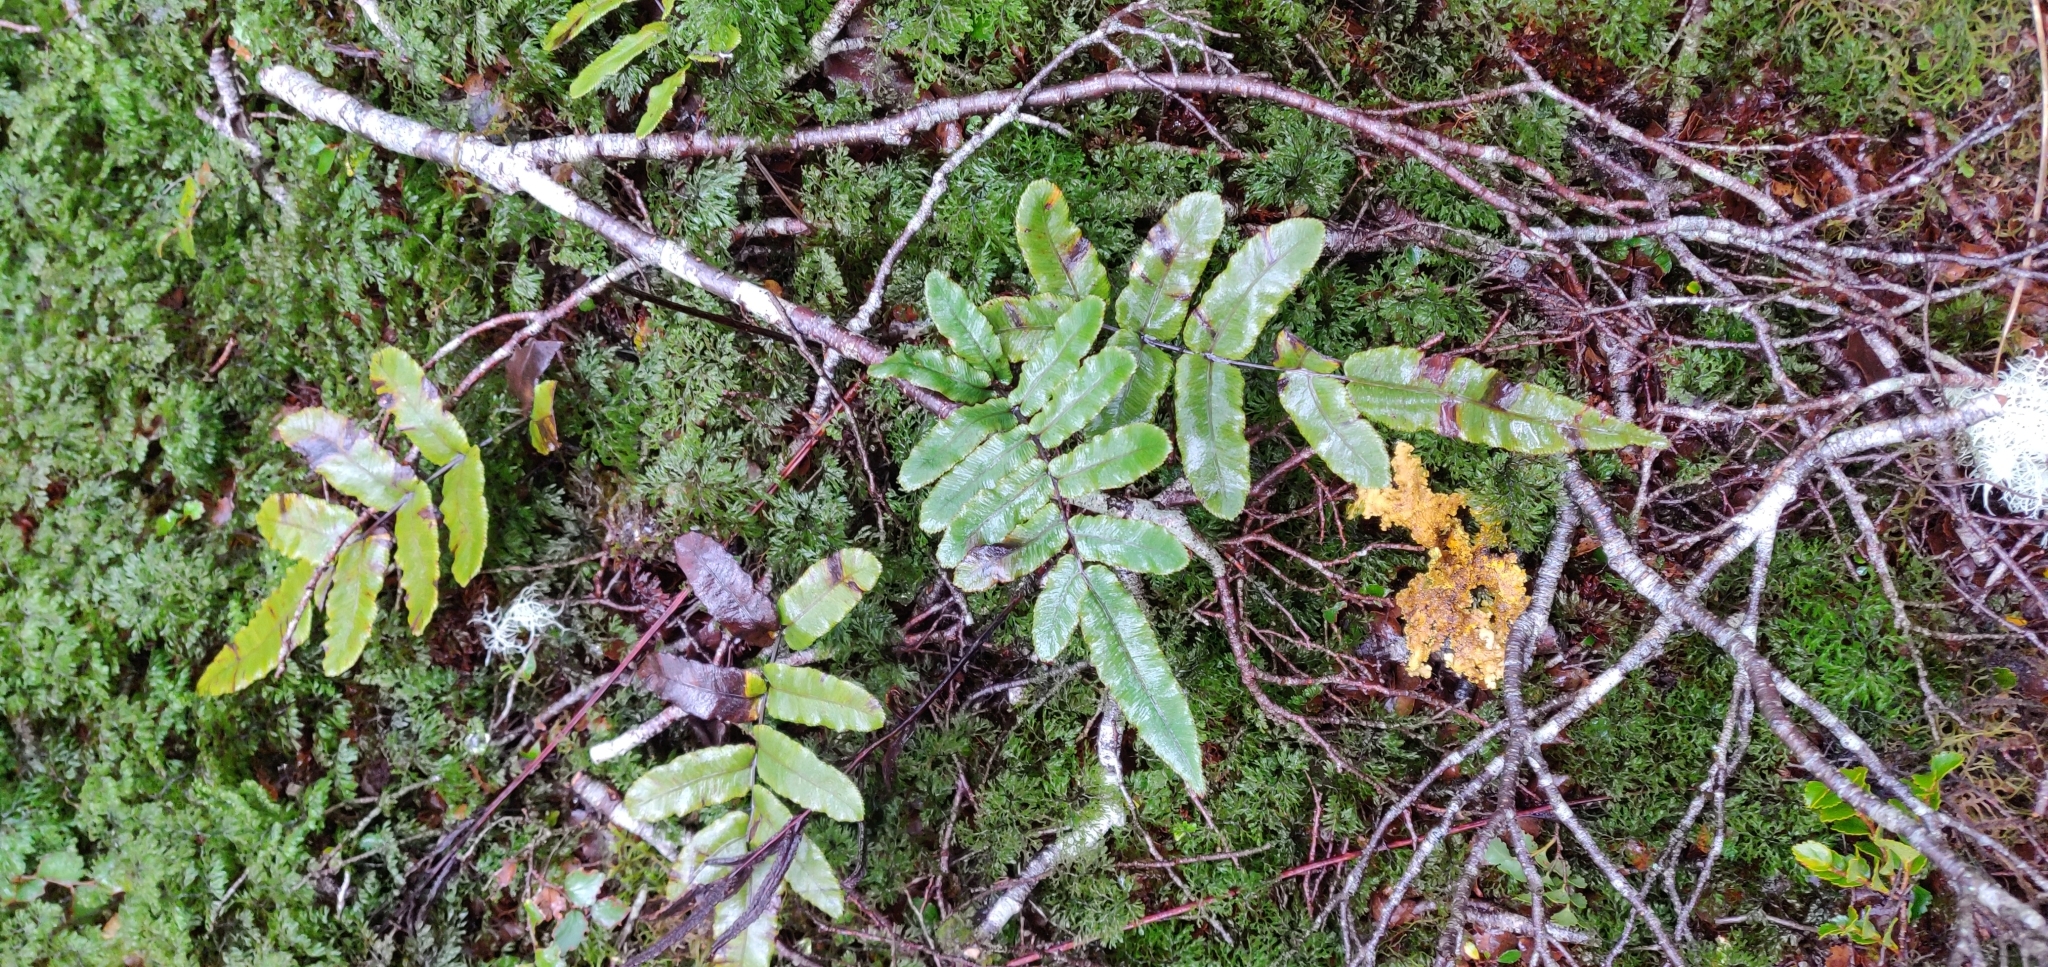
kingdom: Plantae
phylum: Tracheophyta
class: Polypodiopsida
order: Polypodiales
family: Blechnaceae
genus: Parablechnum
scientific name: Parablechnum procerum
